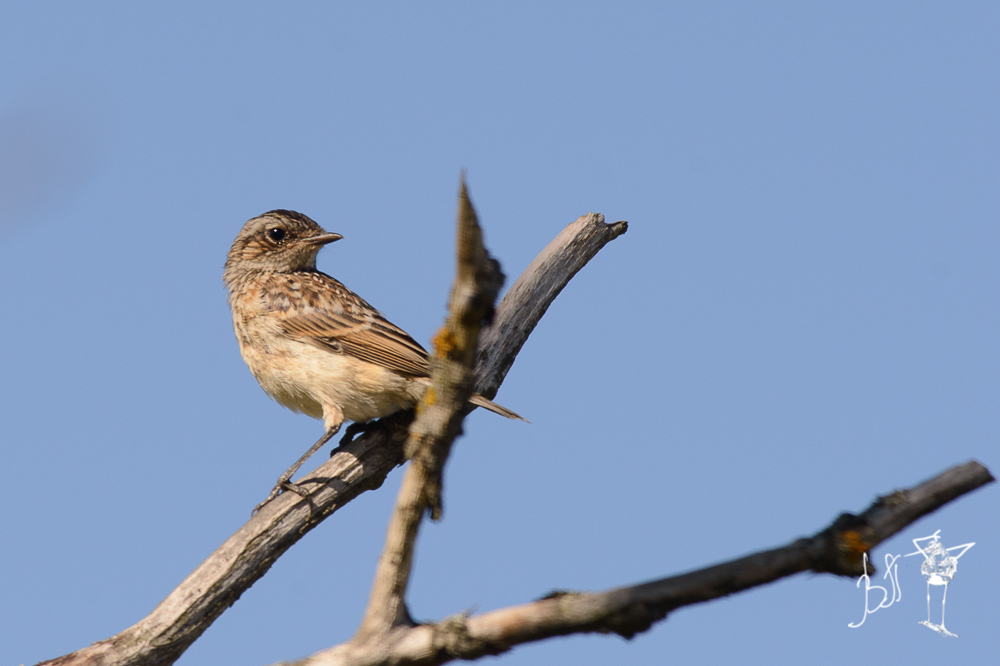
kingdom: Animalia
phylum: Chordata
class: Aves
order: Passeriformes
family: Muscicapidae
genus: Saxicola
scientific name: Saxicola rubetra
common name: Whinchat
